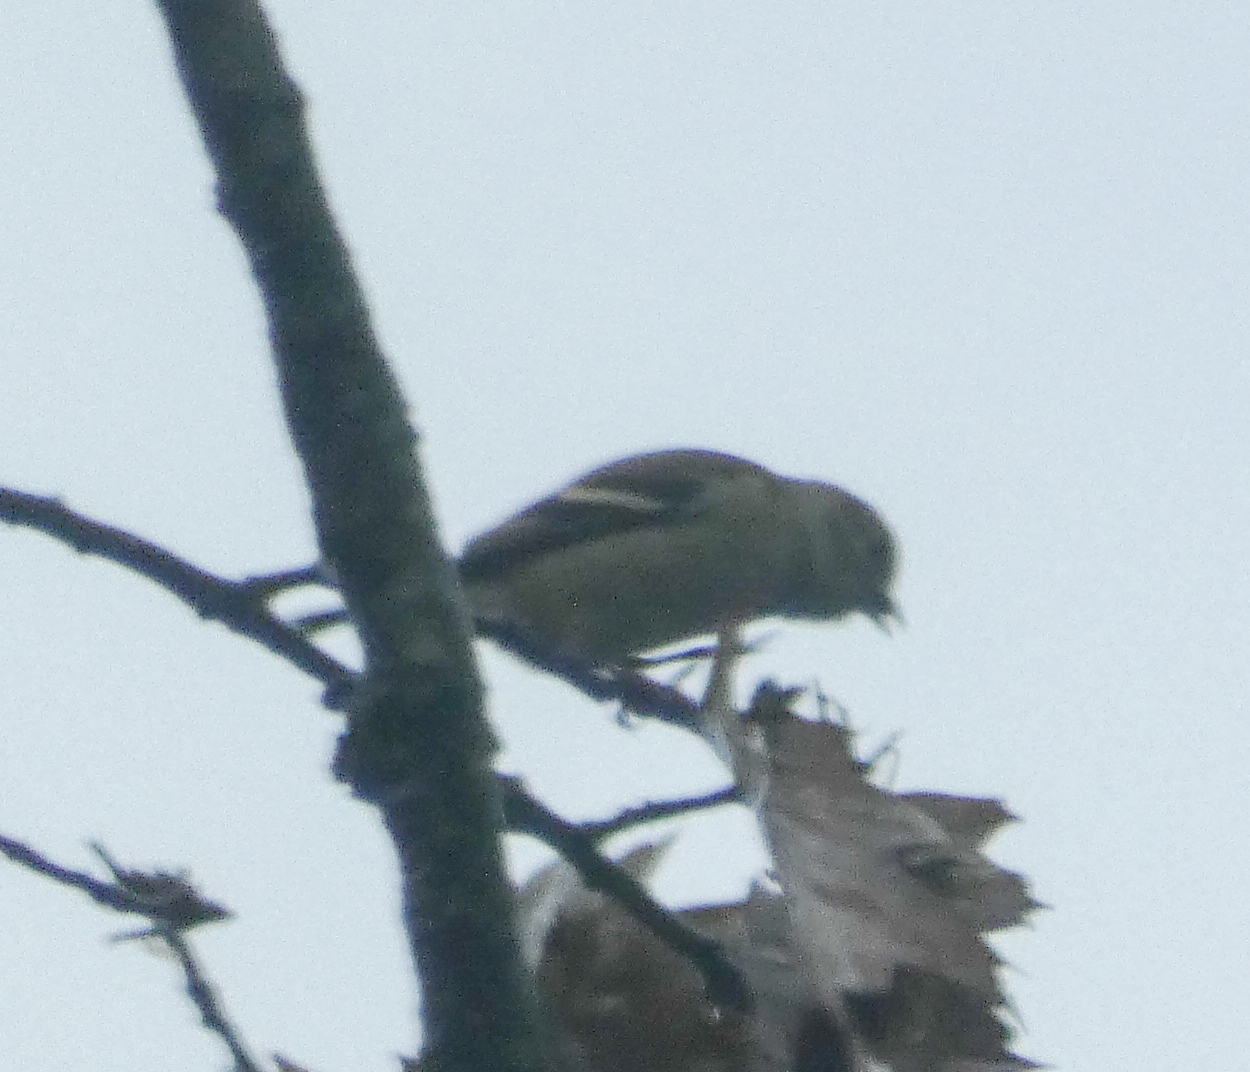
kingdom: Animalia
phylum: Chordata
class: Aves
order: Passeriformes
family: Fringillidae
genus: Spinus
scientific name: Spinus tristis
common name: American goldfinch
